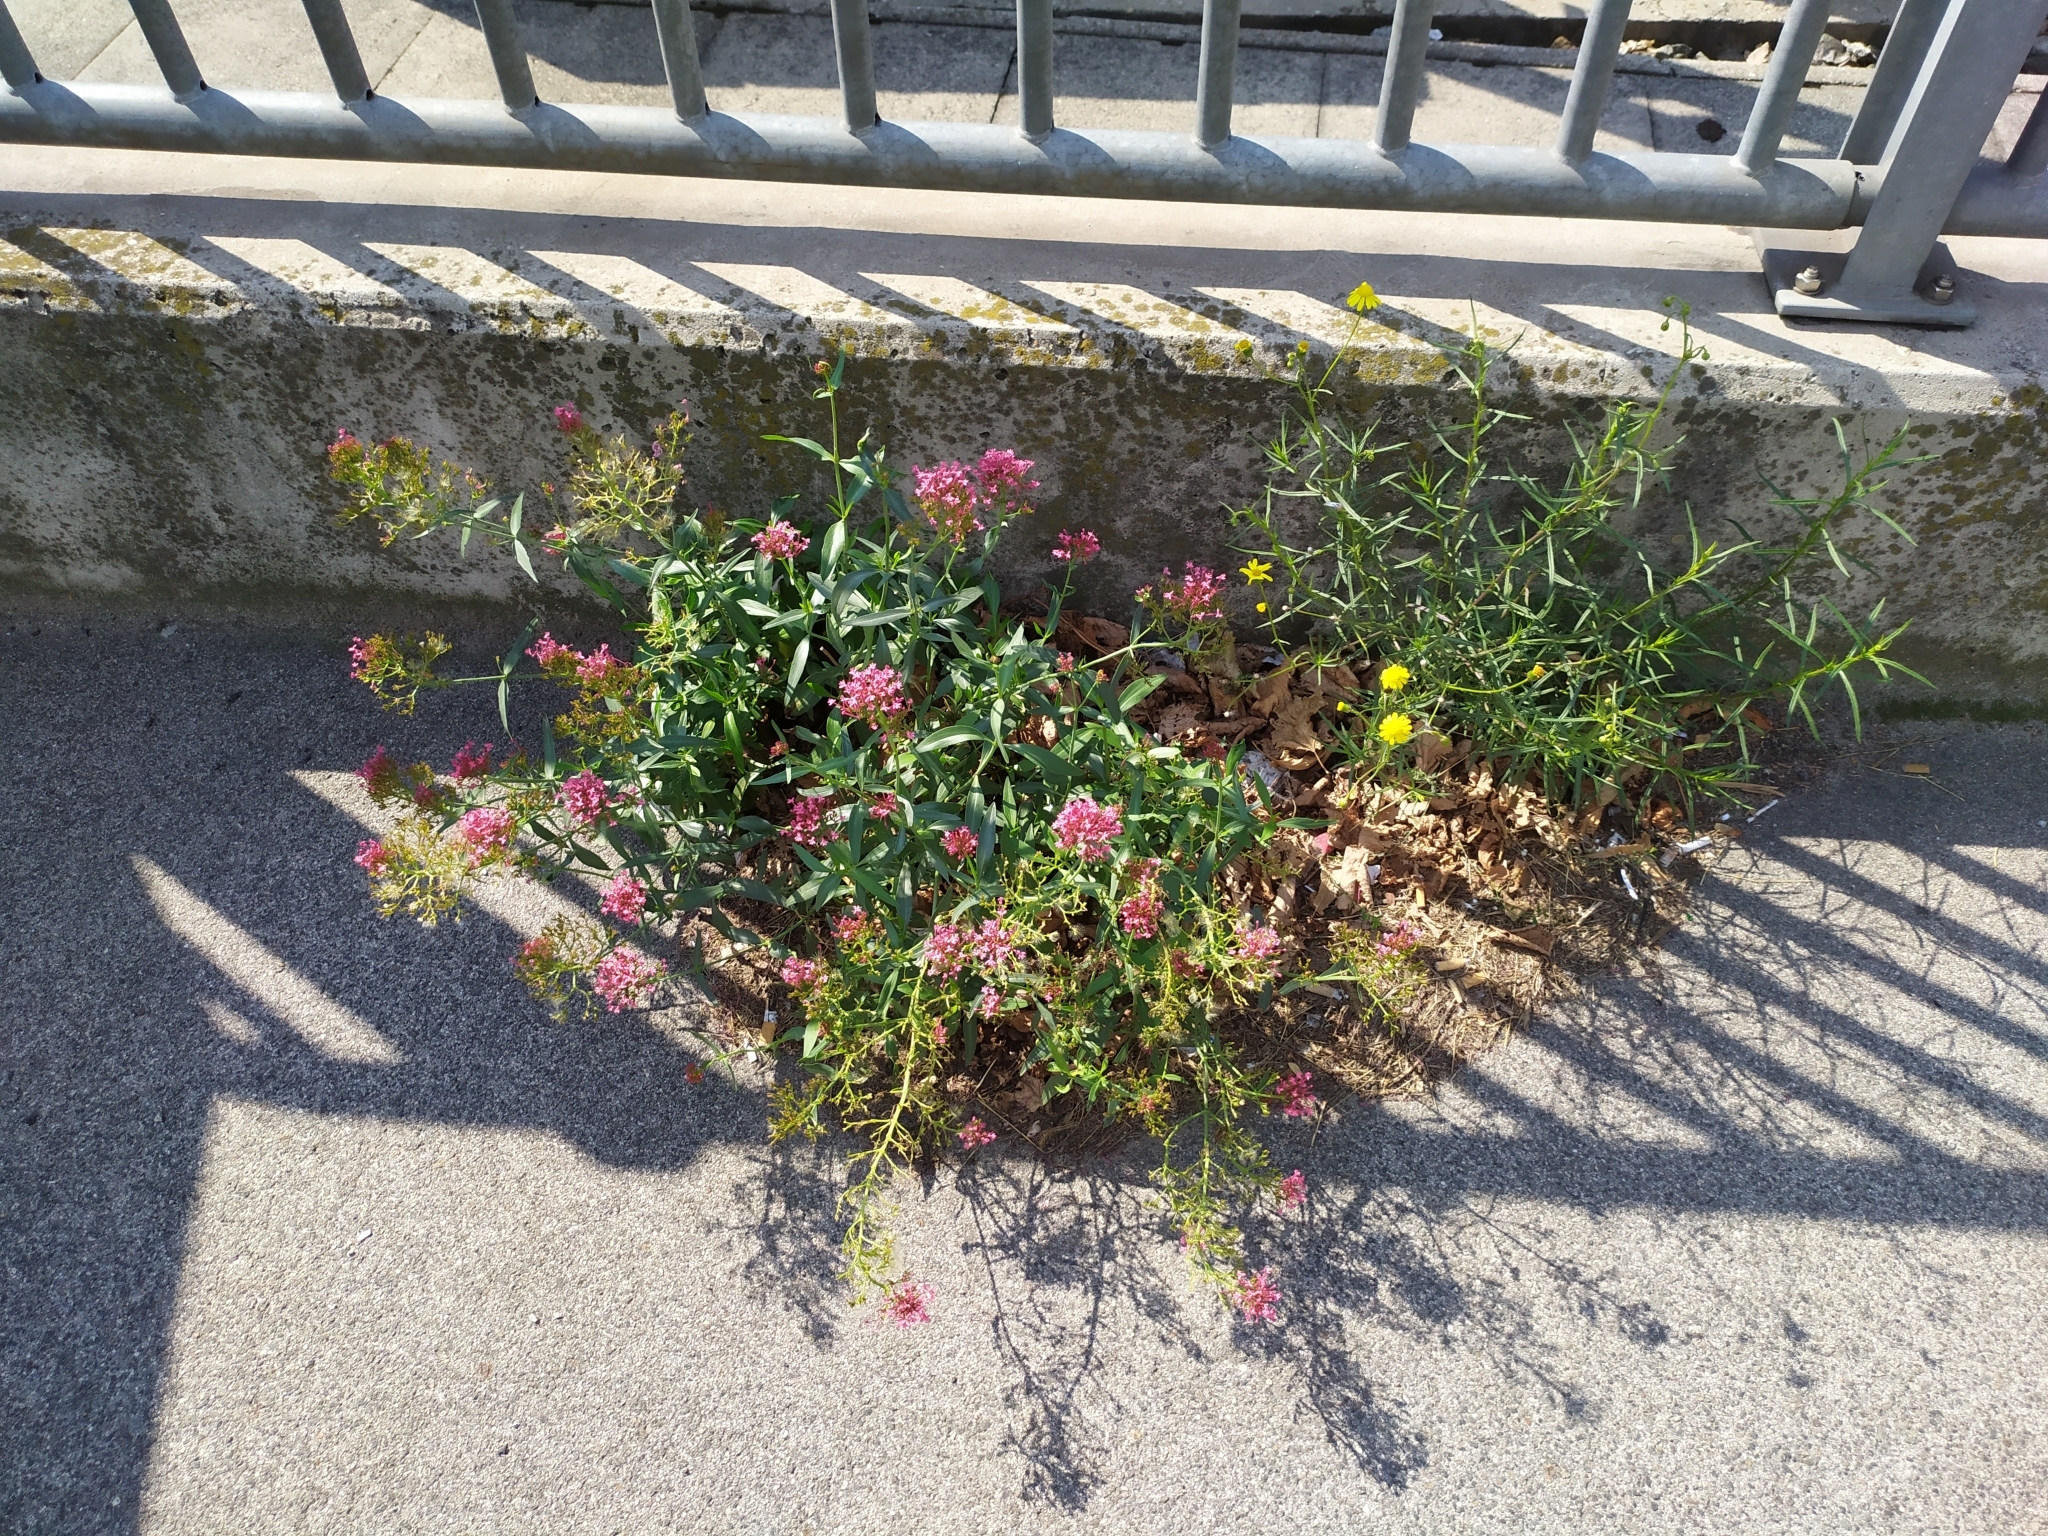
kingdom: Plantae
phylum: Tracheophyta
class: Magnoliopsida
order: Dipsacales
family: Caprifoliaceae
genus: Centranthus
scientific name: Centranthus ruber
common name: Red valerian
